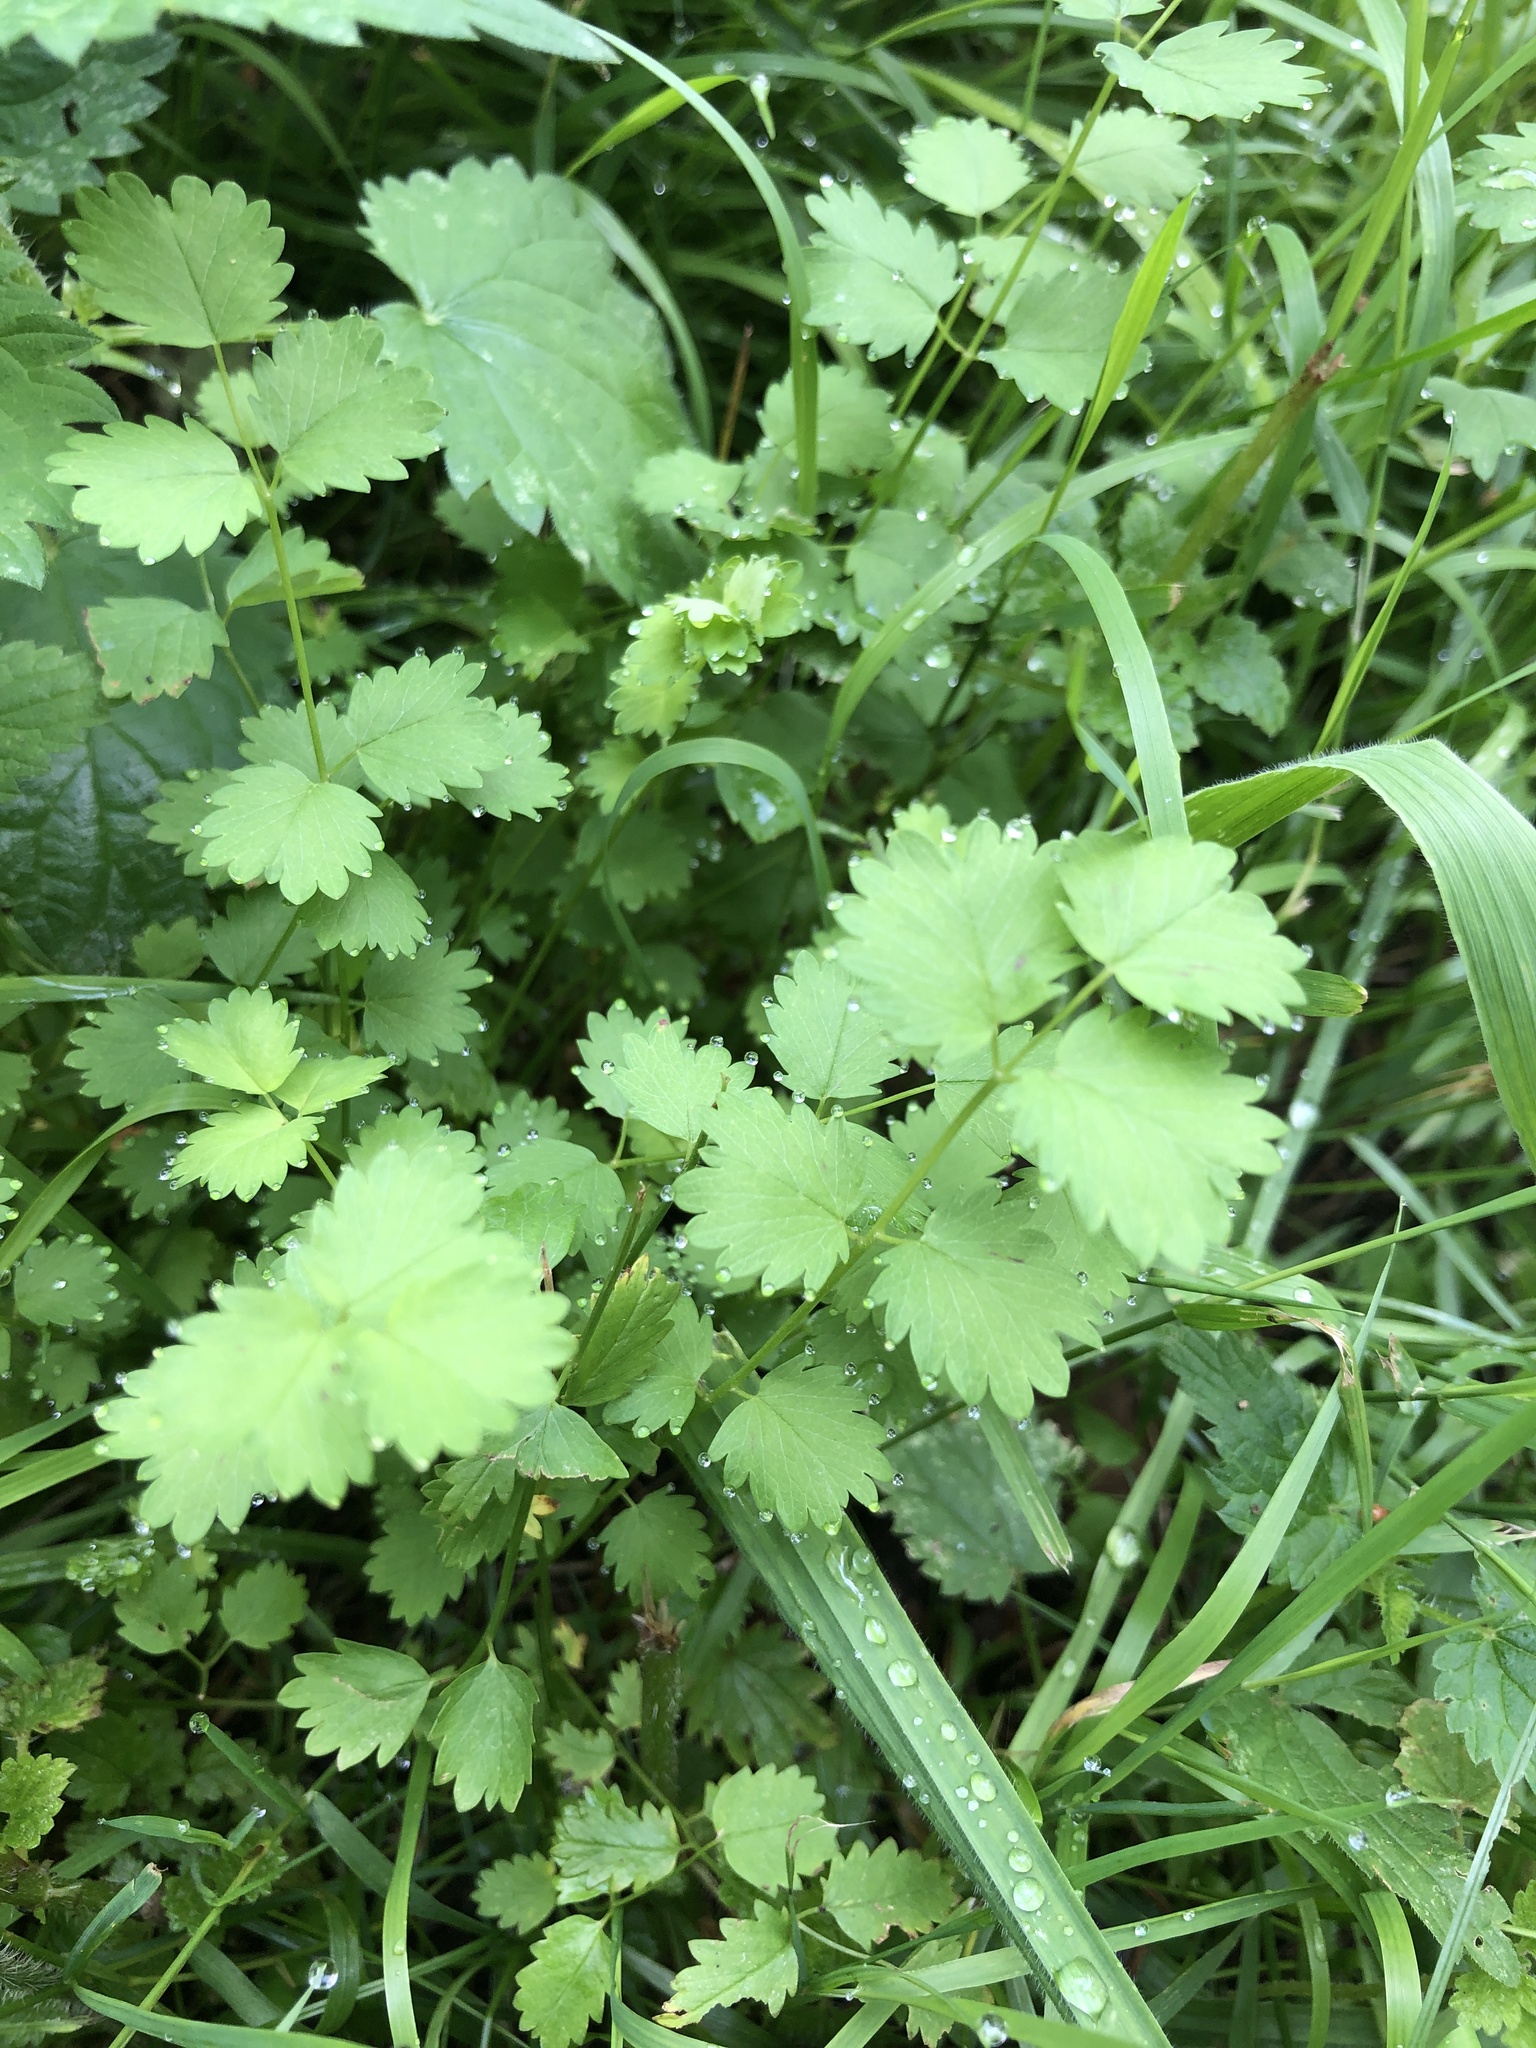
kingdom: Plantae
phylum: Tracheophyta
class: Magnoliopsida
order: Rosales
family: Rosaceae
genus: Poterium
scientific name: Poterium sanguisorba
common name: Salad burnet
